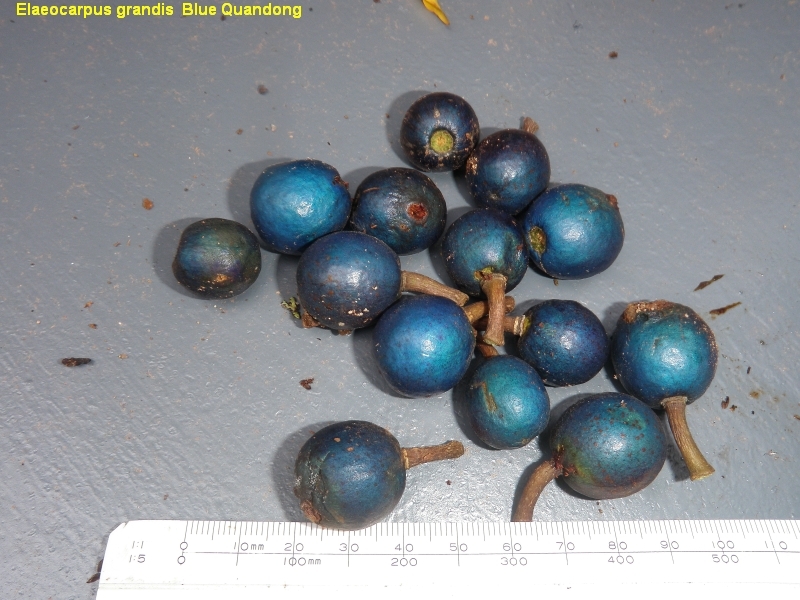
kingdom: Plantae
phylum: Tracheophyta
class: Magnoliopsida
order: Oxalidales
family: Elaeocarpaceae
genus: Elaeocarpus
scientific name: Elaeocarpus angustifolius
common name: Blue marble tree
